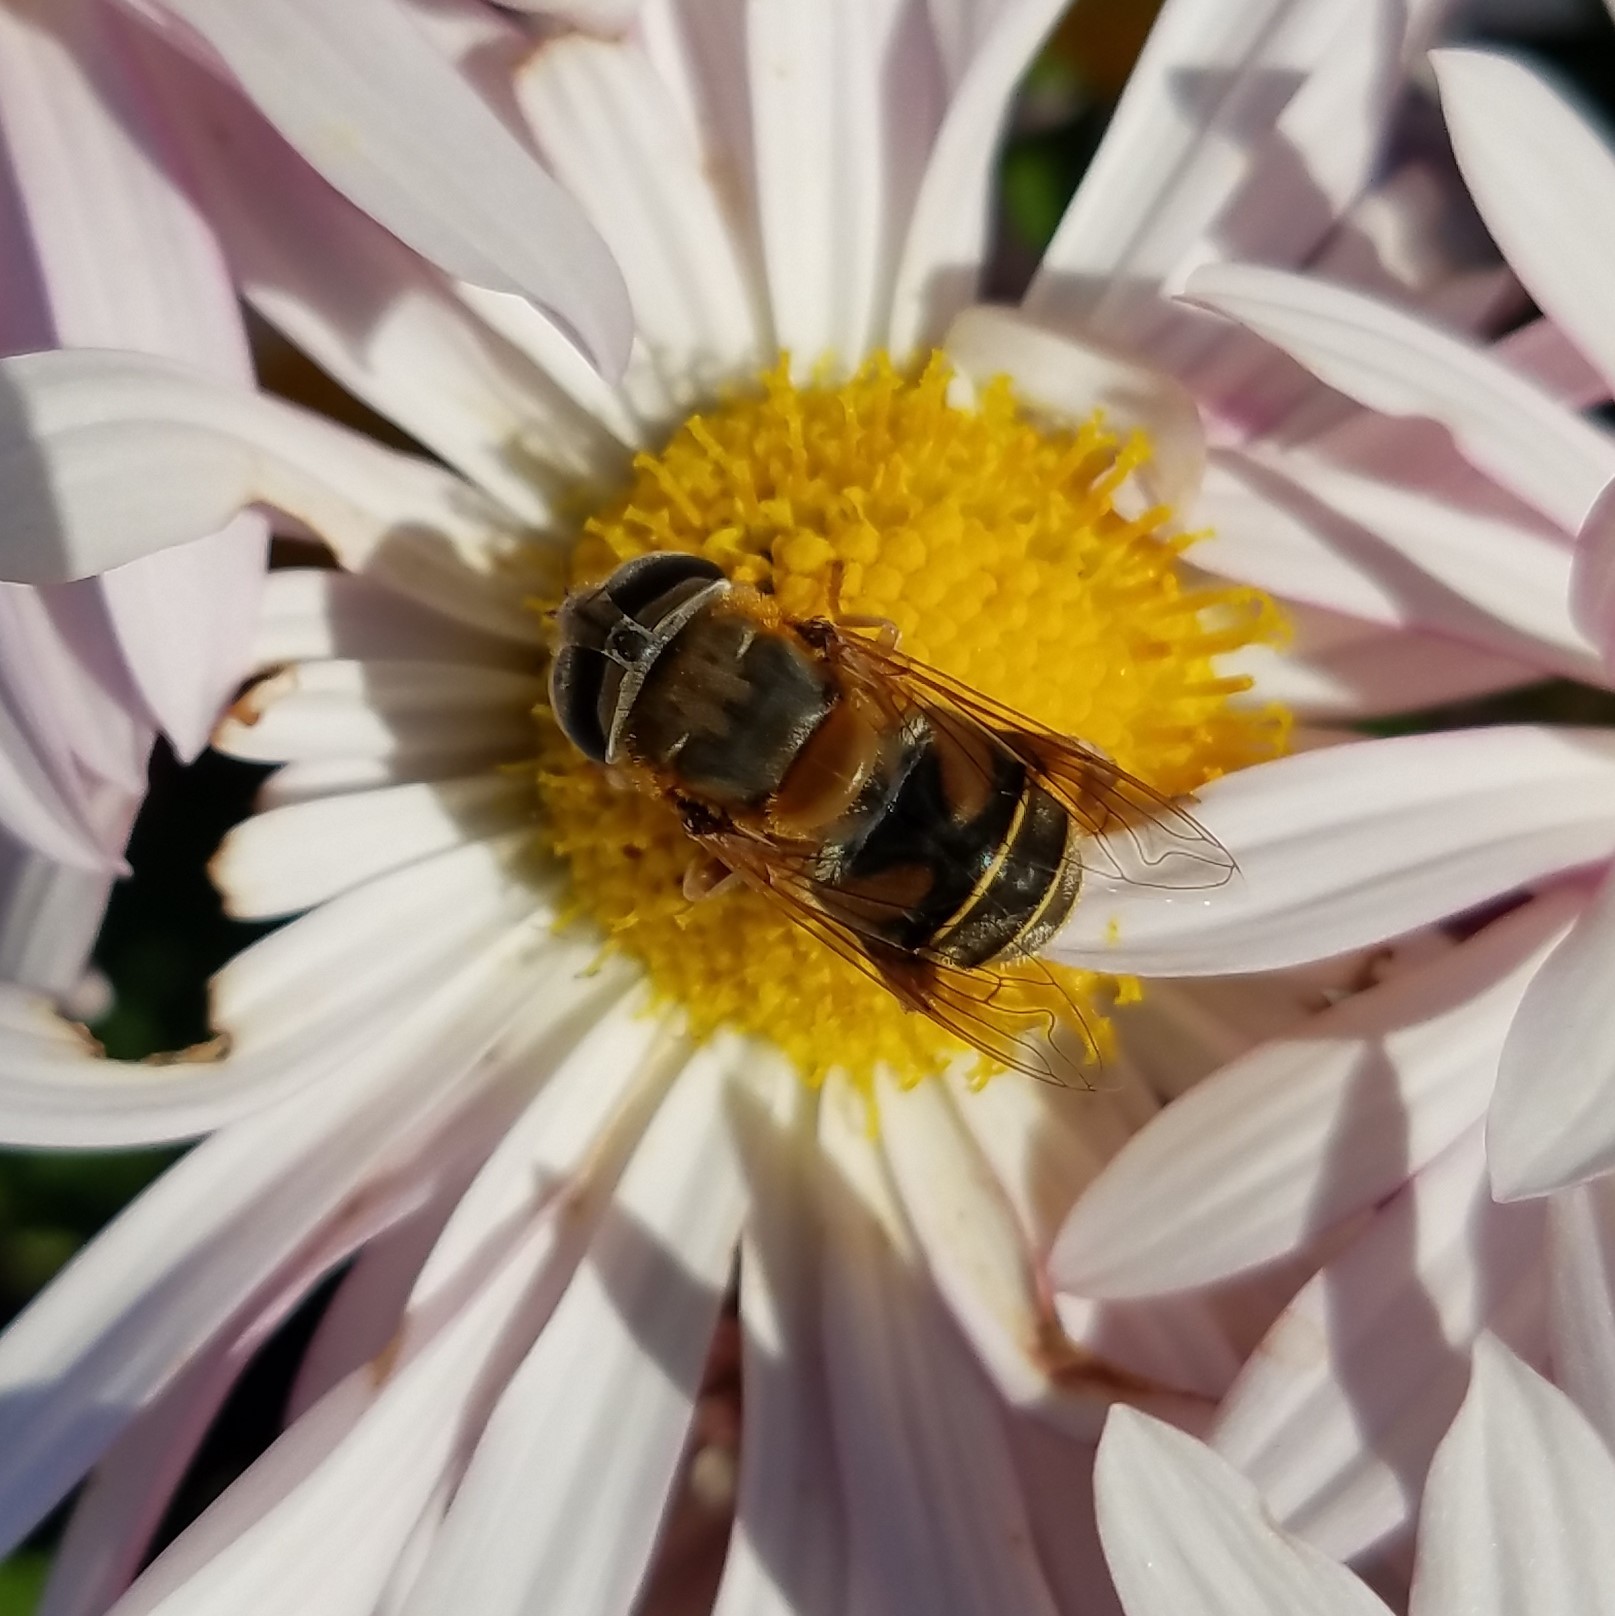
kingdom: Animalia
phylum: Arthropoda
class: Insecta
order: Diptera
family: Syrphidae
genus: Palpada
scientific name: Palpada mexicana
